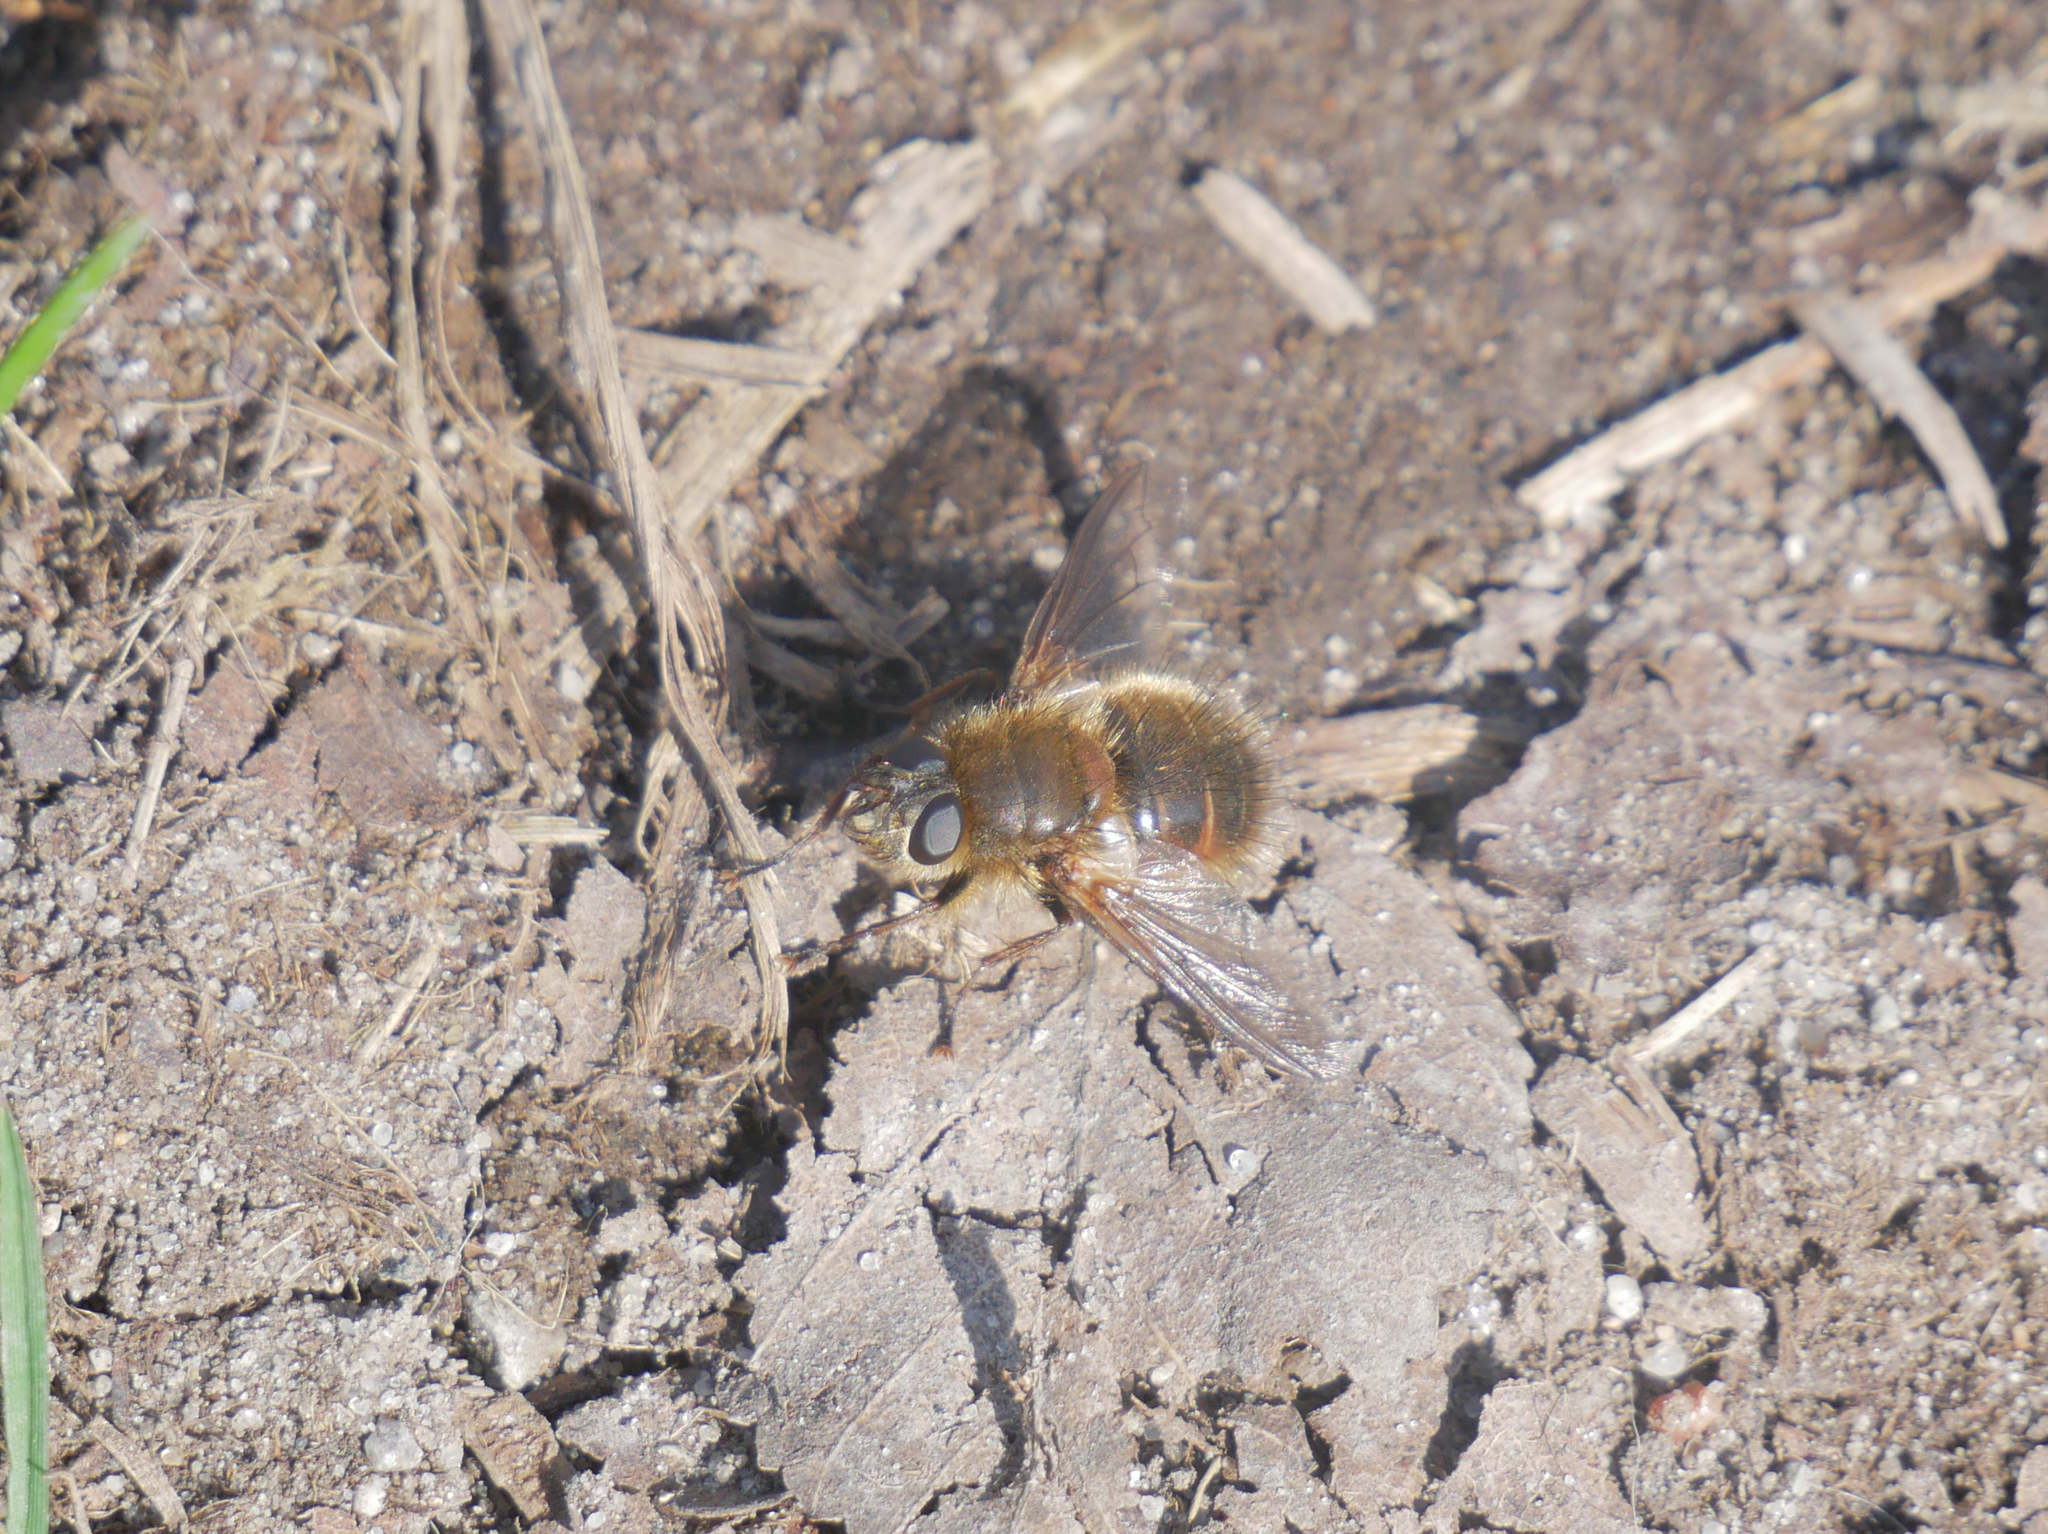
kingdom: Animalia
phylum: Arthropoda
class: Insecta
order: Diptera
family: Tachinidae
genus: Tachina
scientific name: Tachina ursina
